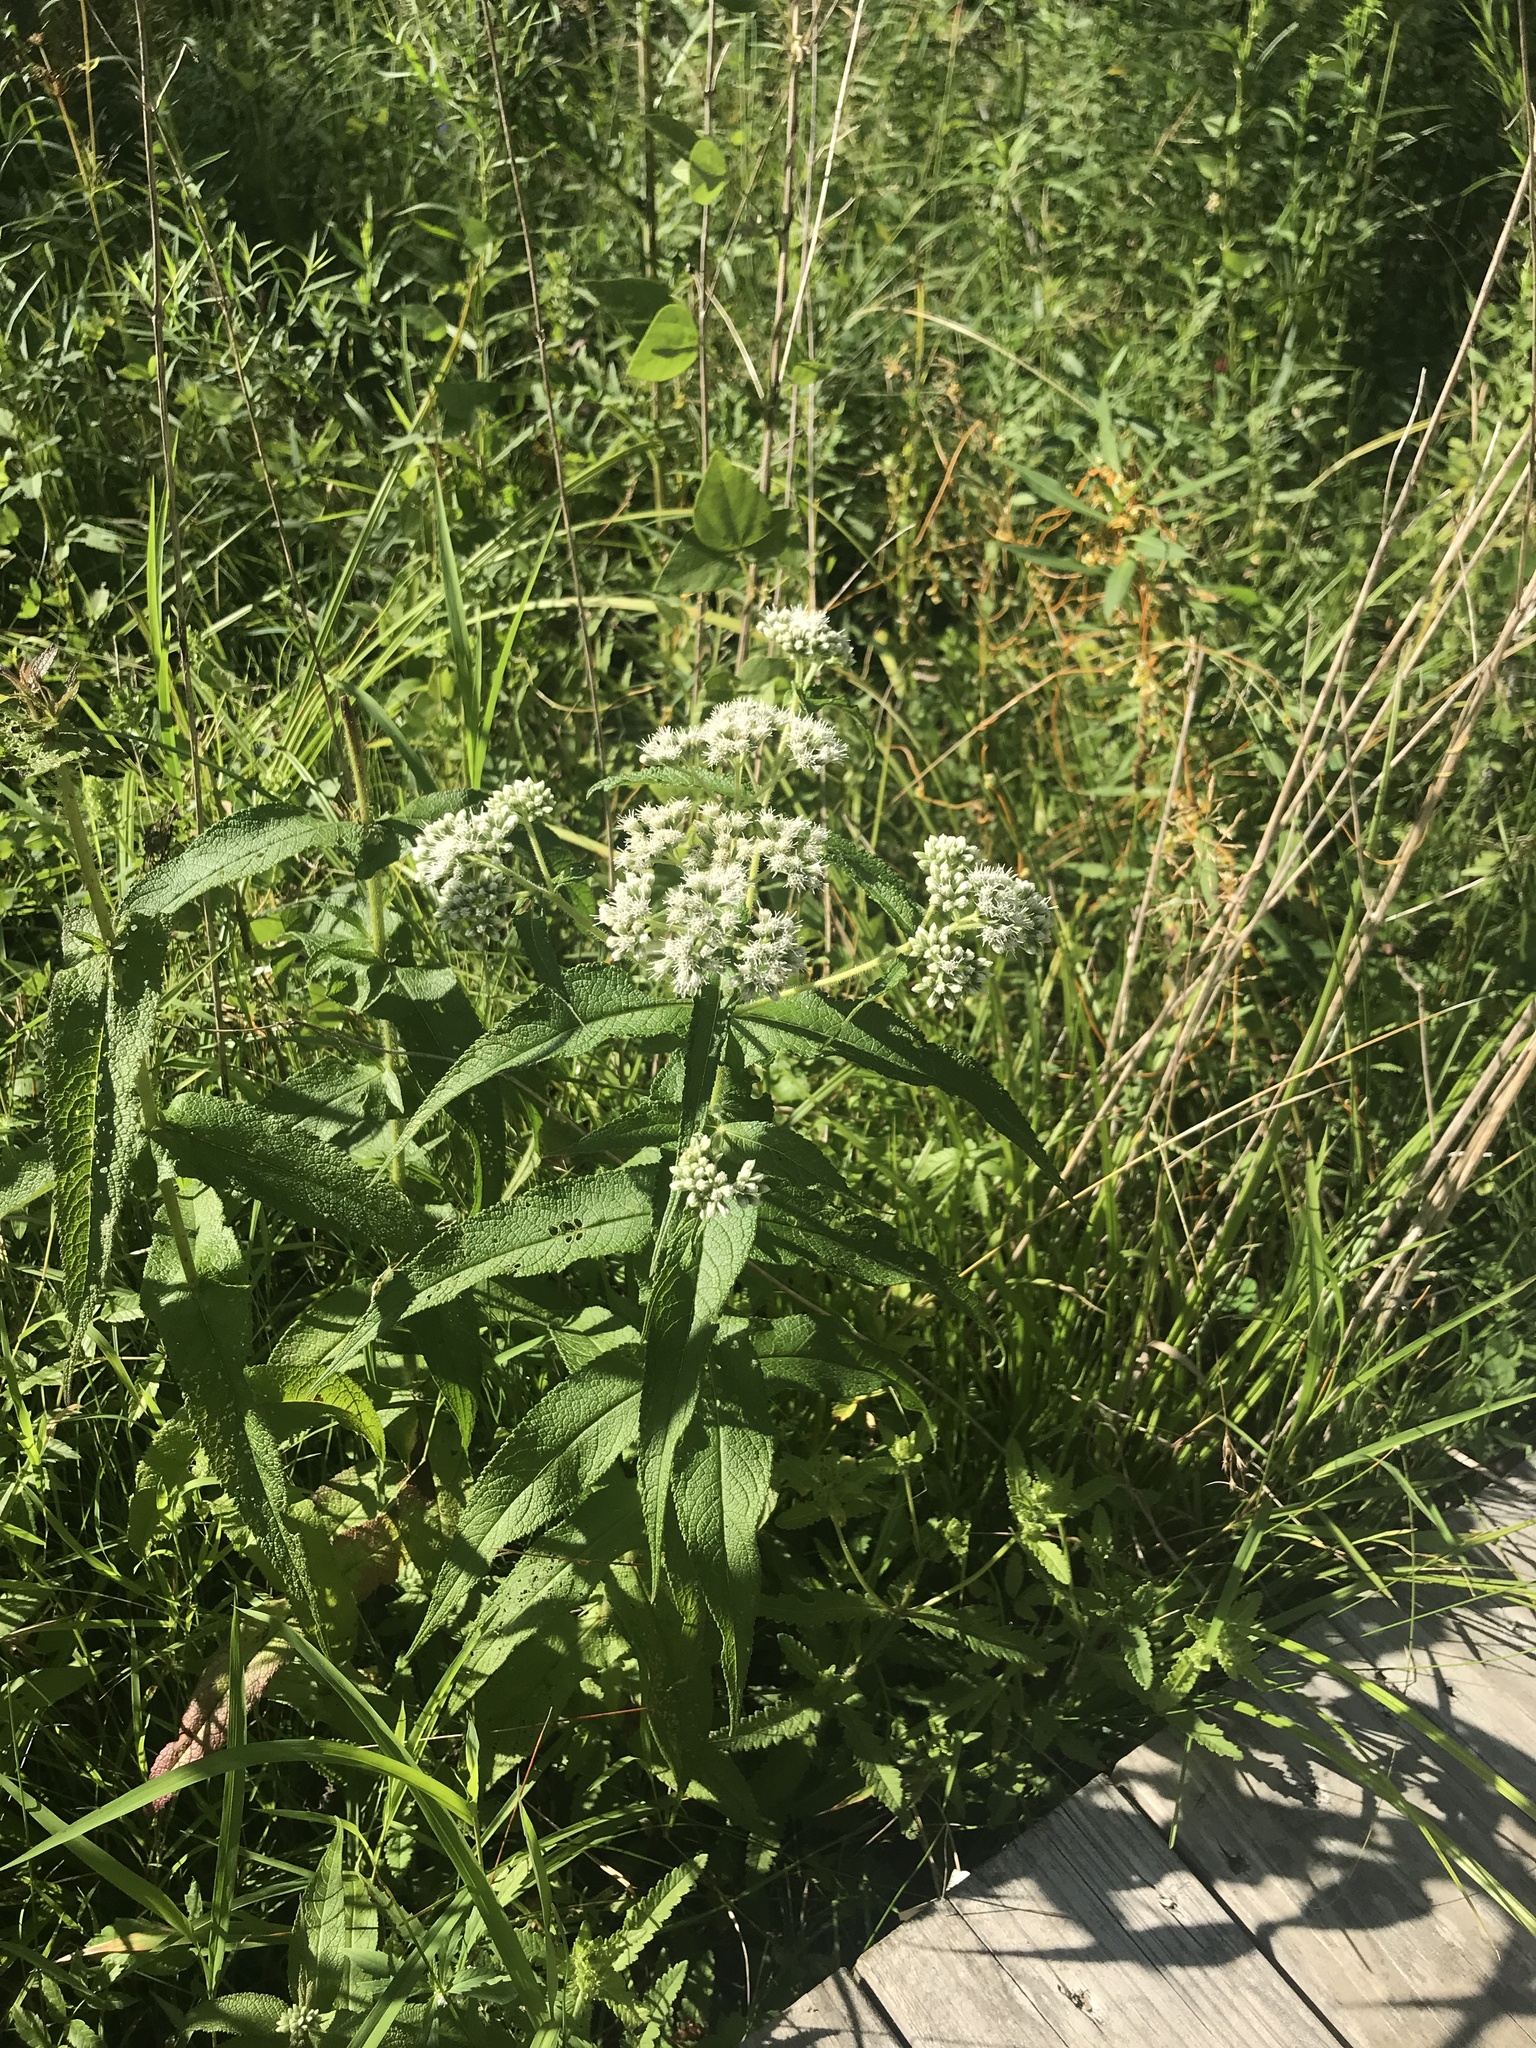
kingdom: Plantae
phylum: Tracheophyta
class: Magnoliopsida
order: Asterales
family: Asteraceae
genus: Eupatorium
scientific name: Eupatorium perfoliatum
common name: Boneset
